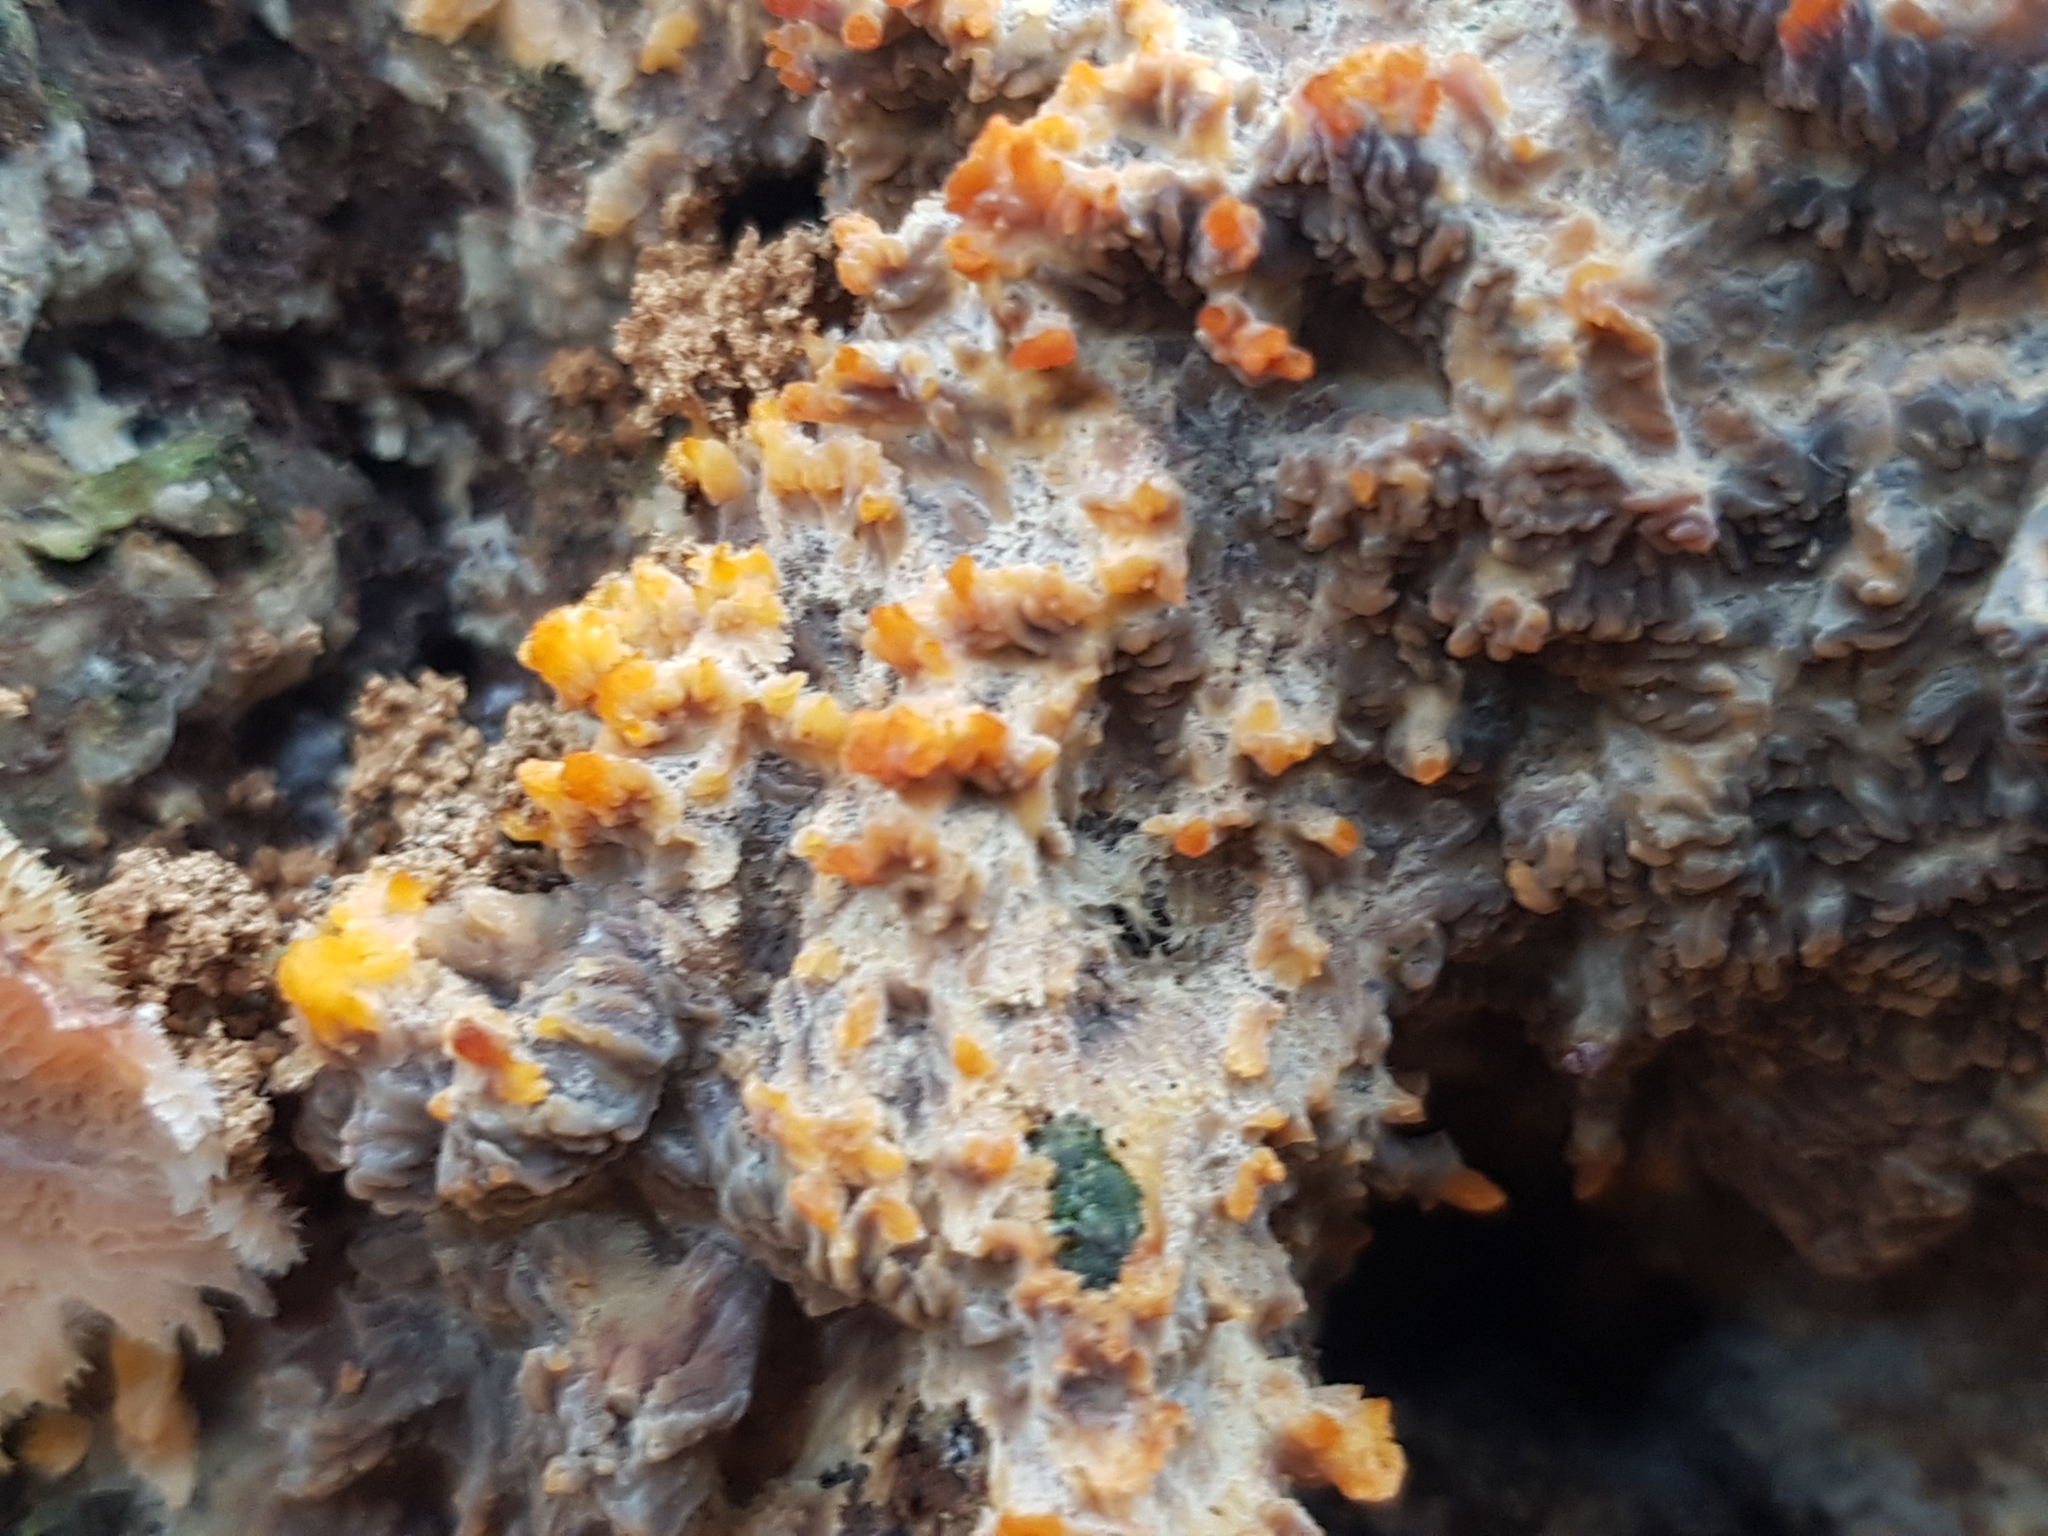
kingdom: Fungi
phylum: Basidiomycota
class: Agaricomycetes
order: Polyporales
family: Meruliaceae
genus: Phlebia
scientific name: Phlebia radiata
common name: Wrinkled crust
